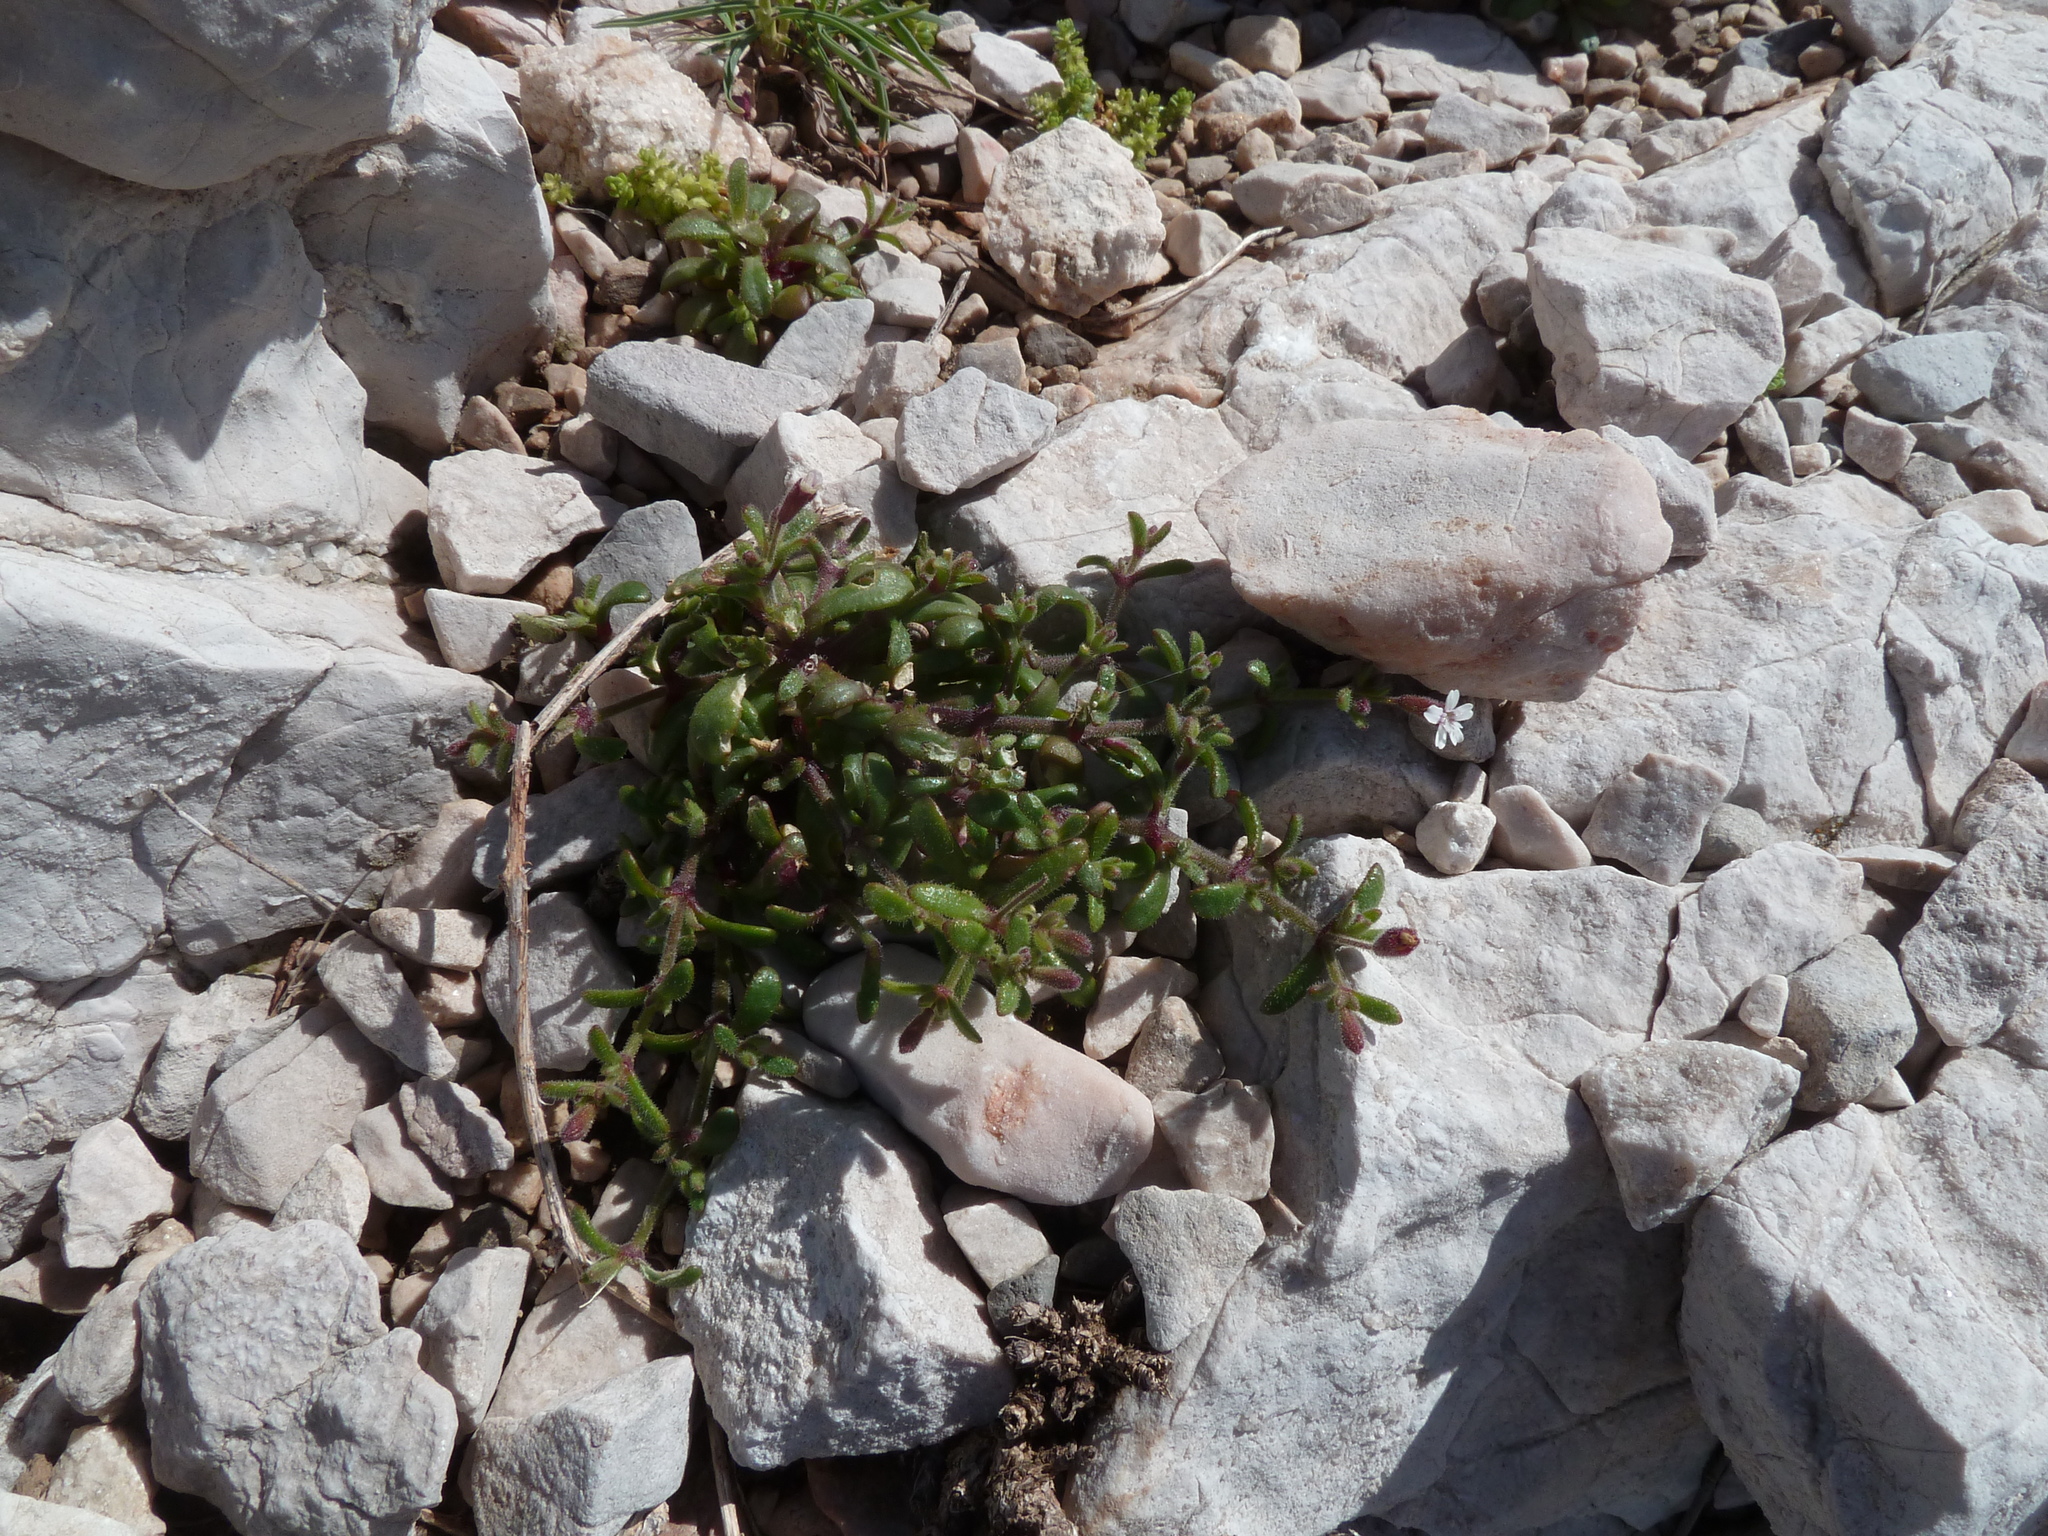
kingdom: Plantae
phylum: Tracheophyta
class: Magnoliopsida
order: Caryophyllales
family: Caryophyllaceae
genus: Silene
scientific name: Silene sedoides
